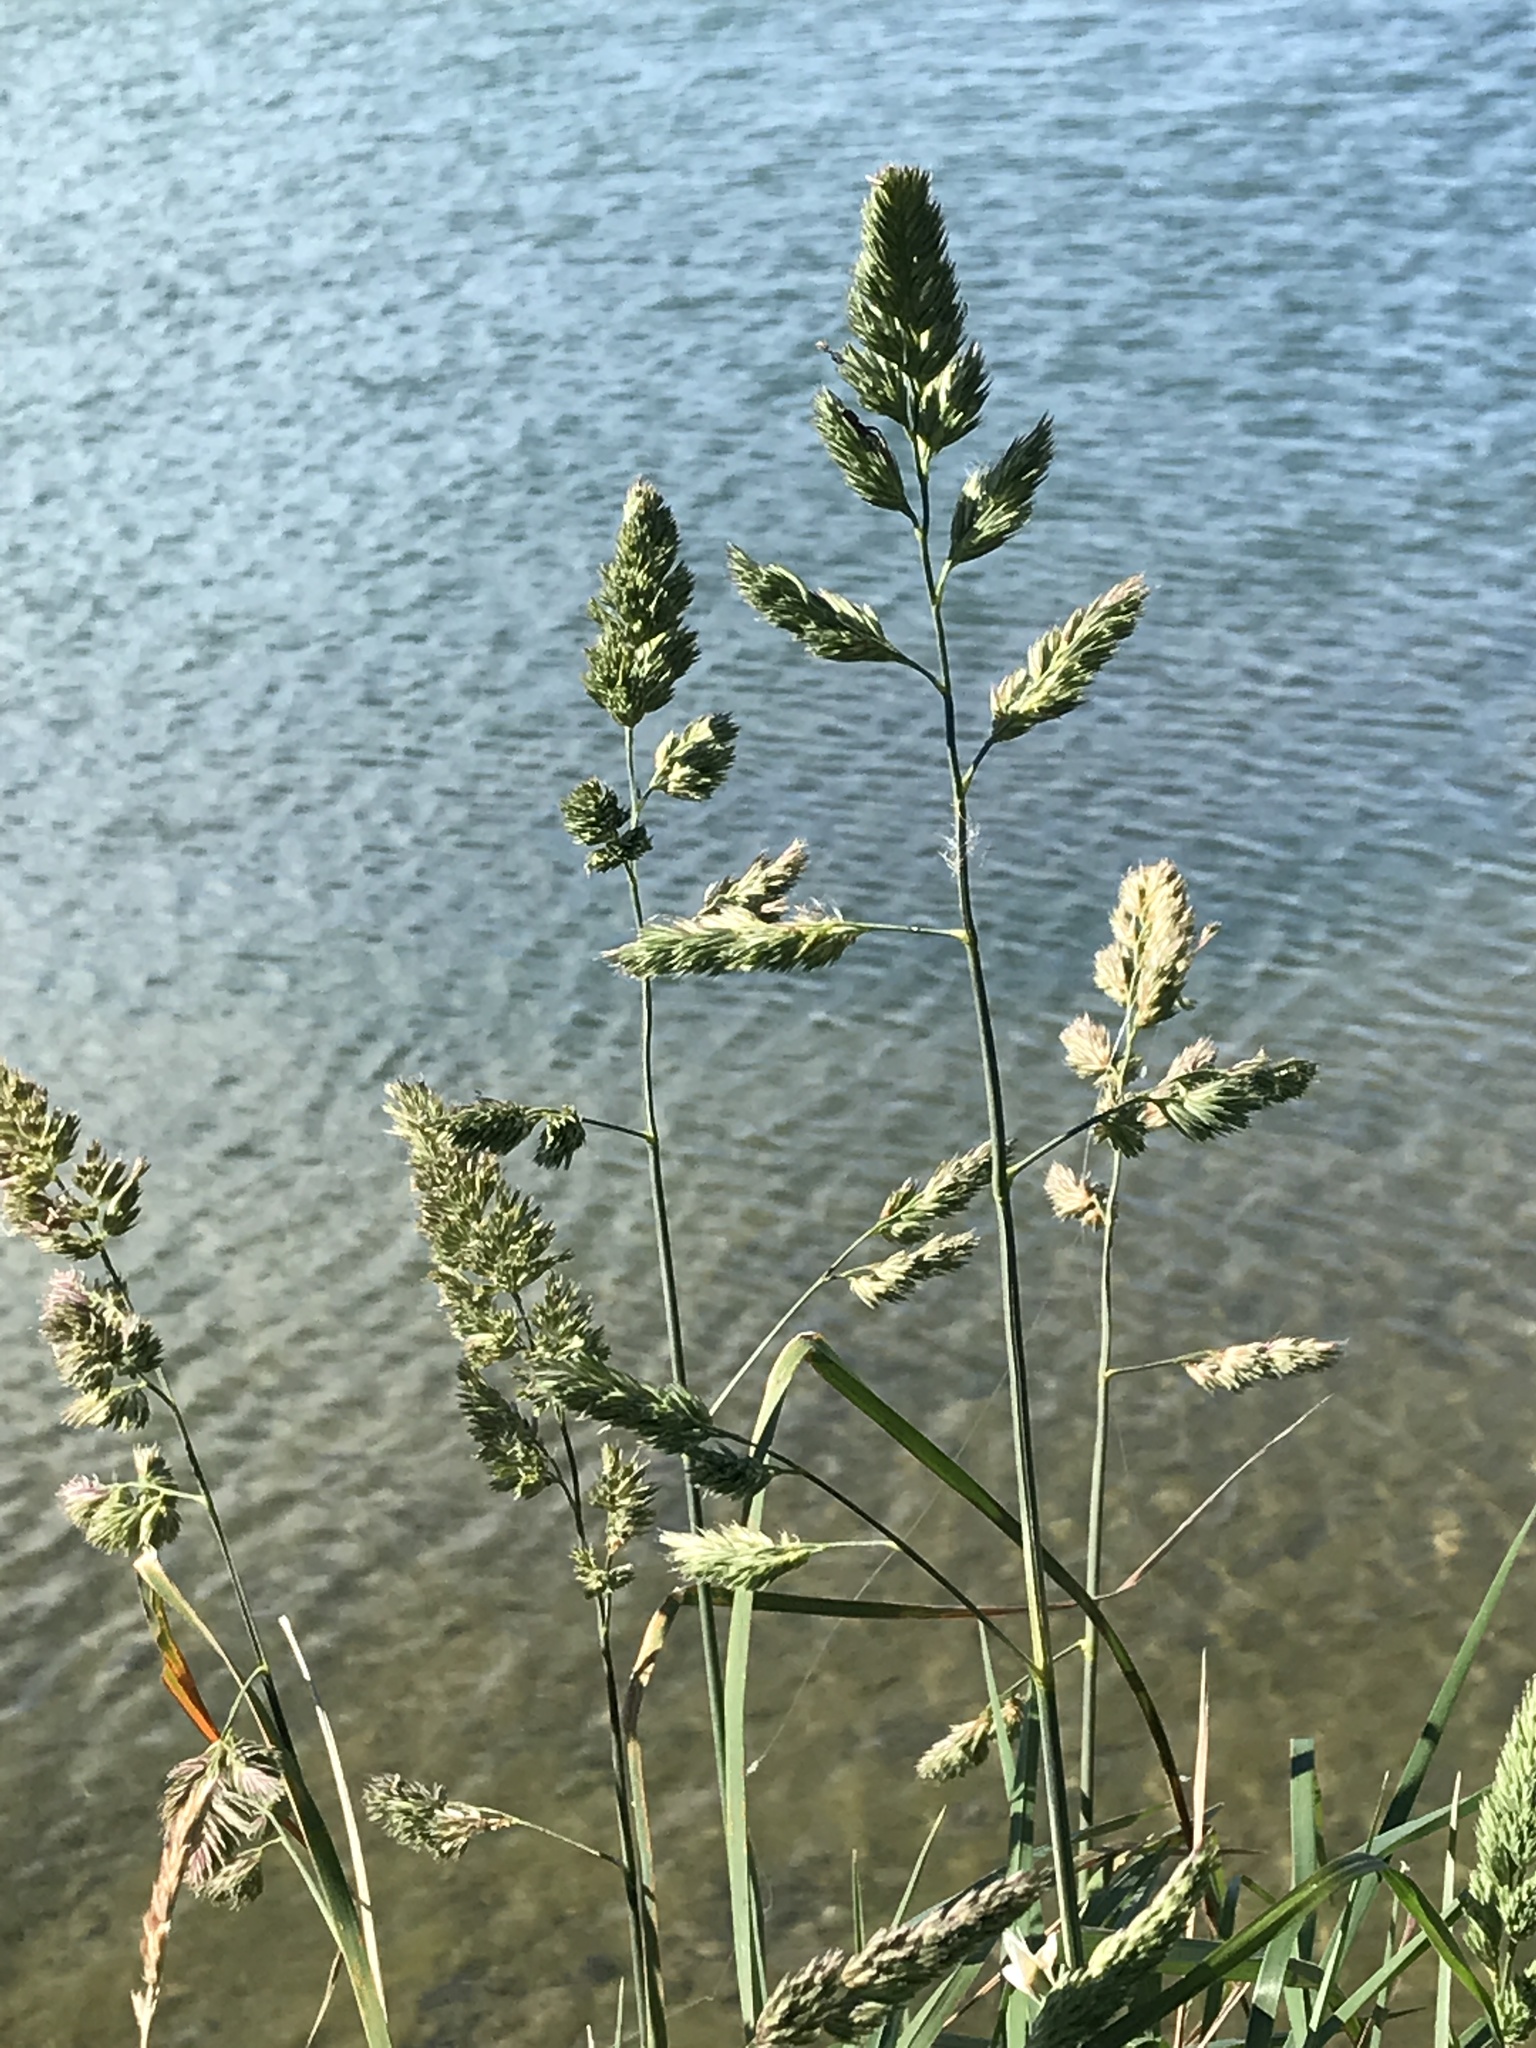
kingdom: Plantae
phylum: Tracheophyta
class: Liliopsida
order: Poales
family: Poaceae
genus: Dactylis
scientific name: Dactylis glomerata
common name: Orchardgrass
